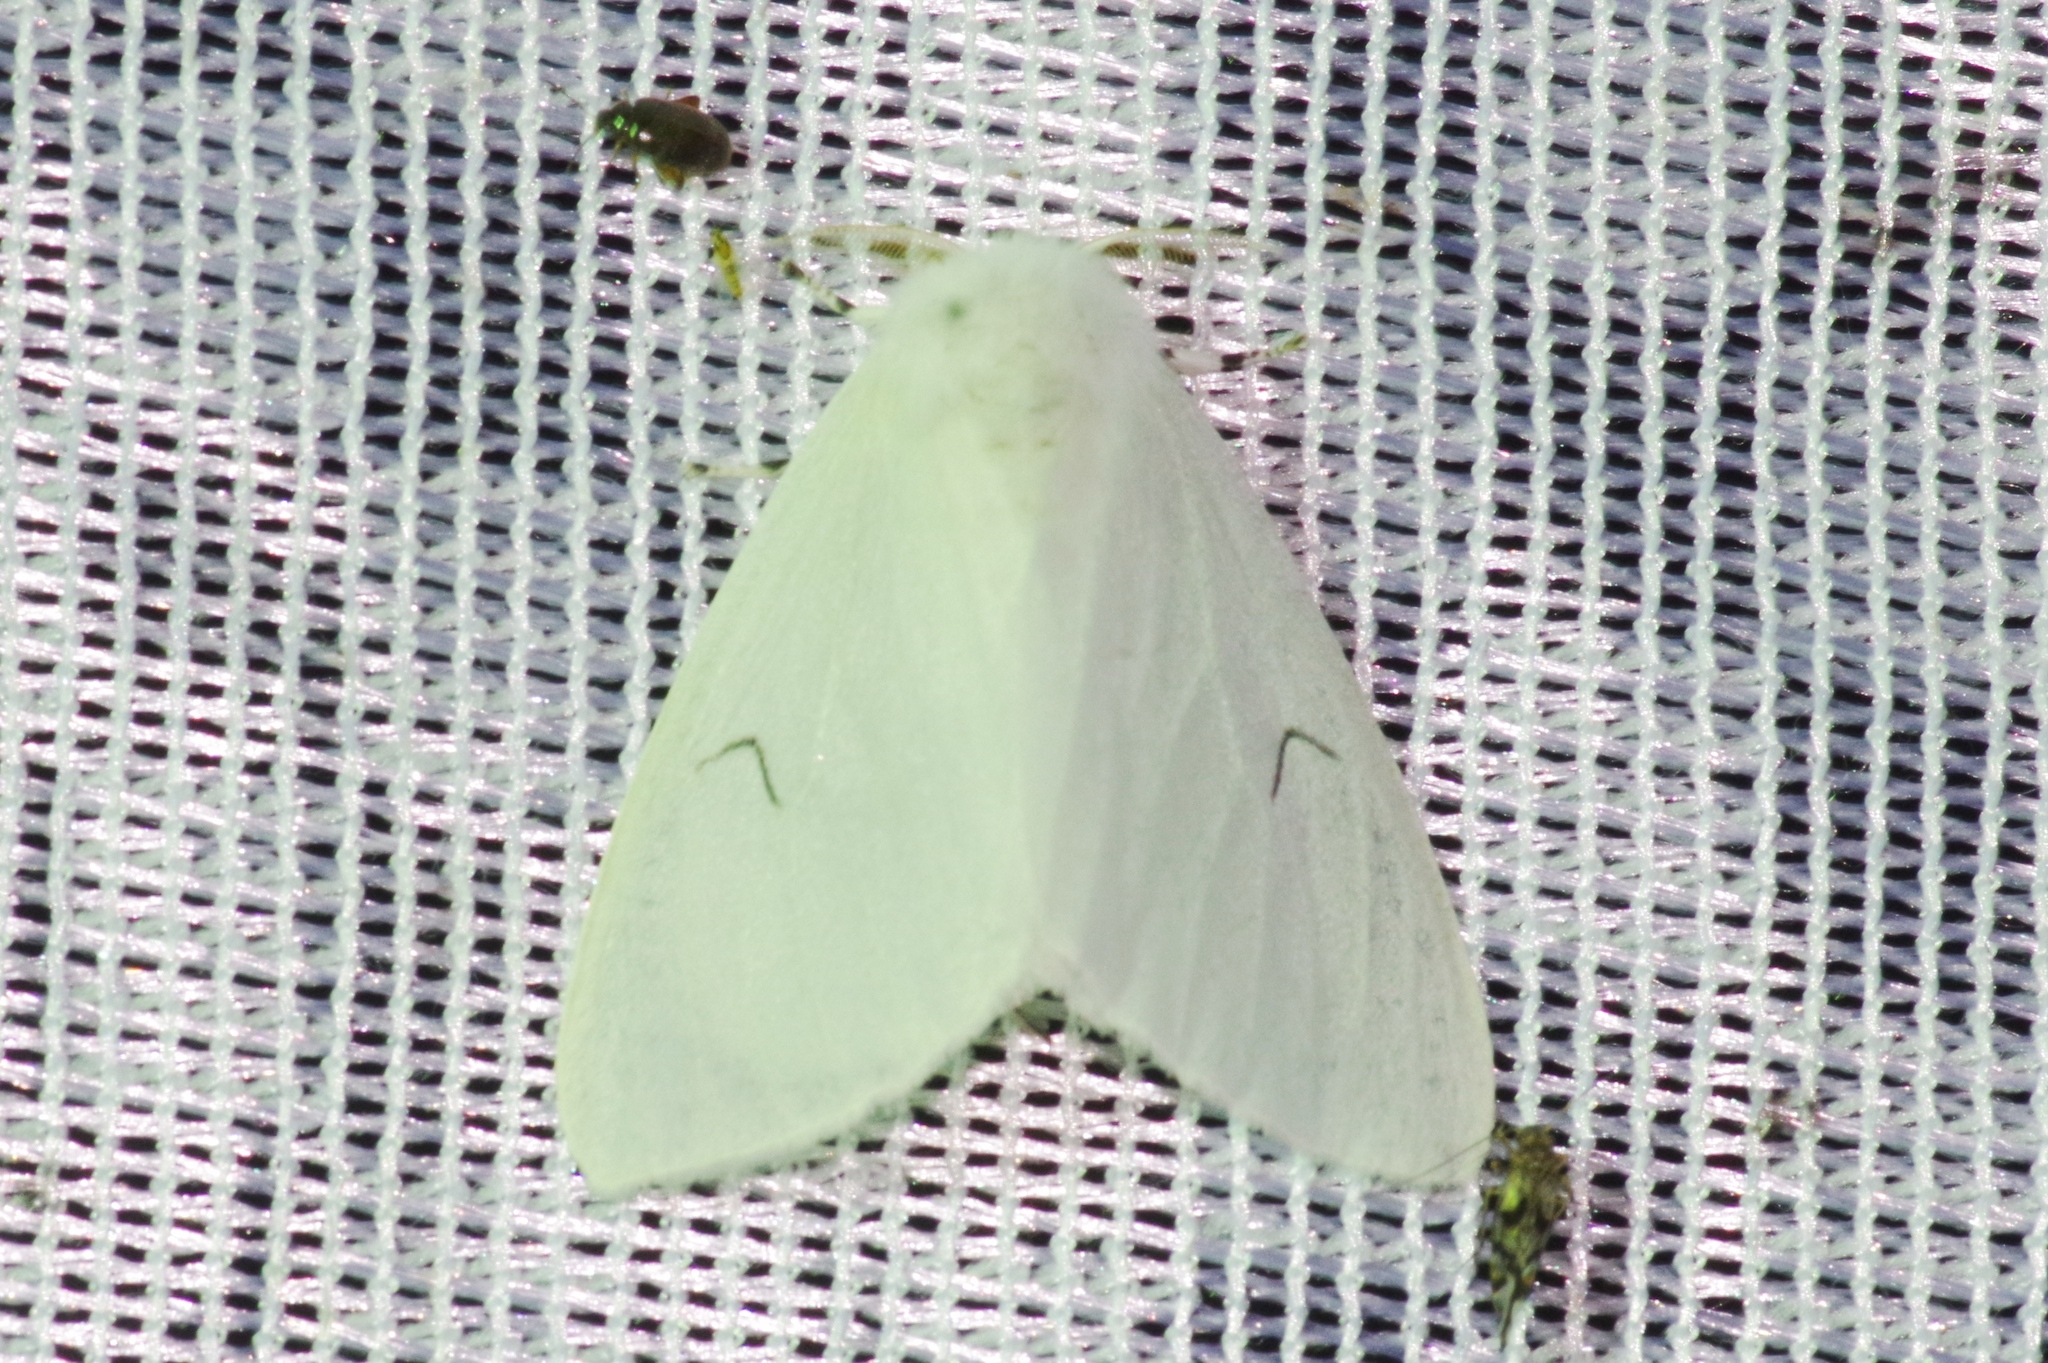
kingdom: Animalia
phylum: Arthropoda
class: Insecta
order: Lepidoptera
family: Erebidae
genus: Arctornis
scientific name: Arctornis l-nigrum
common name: Black v moth
